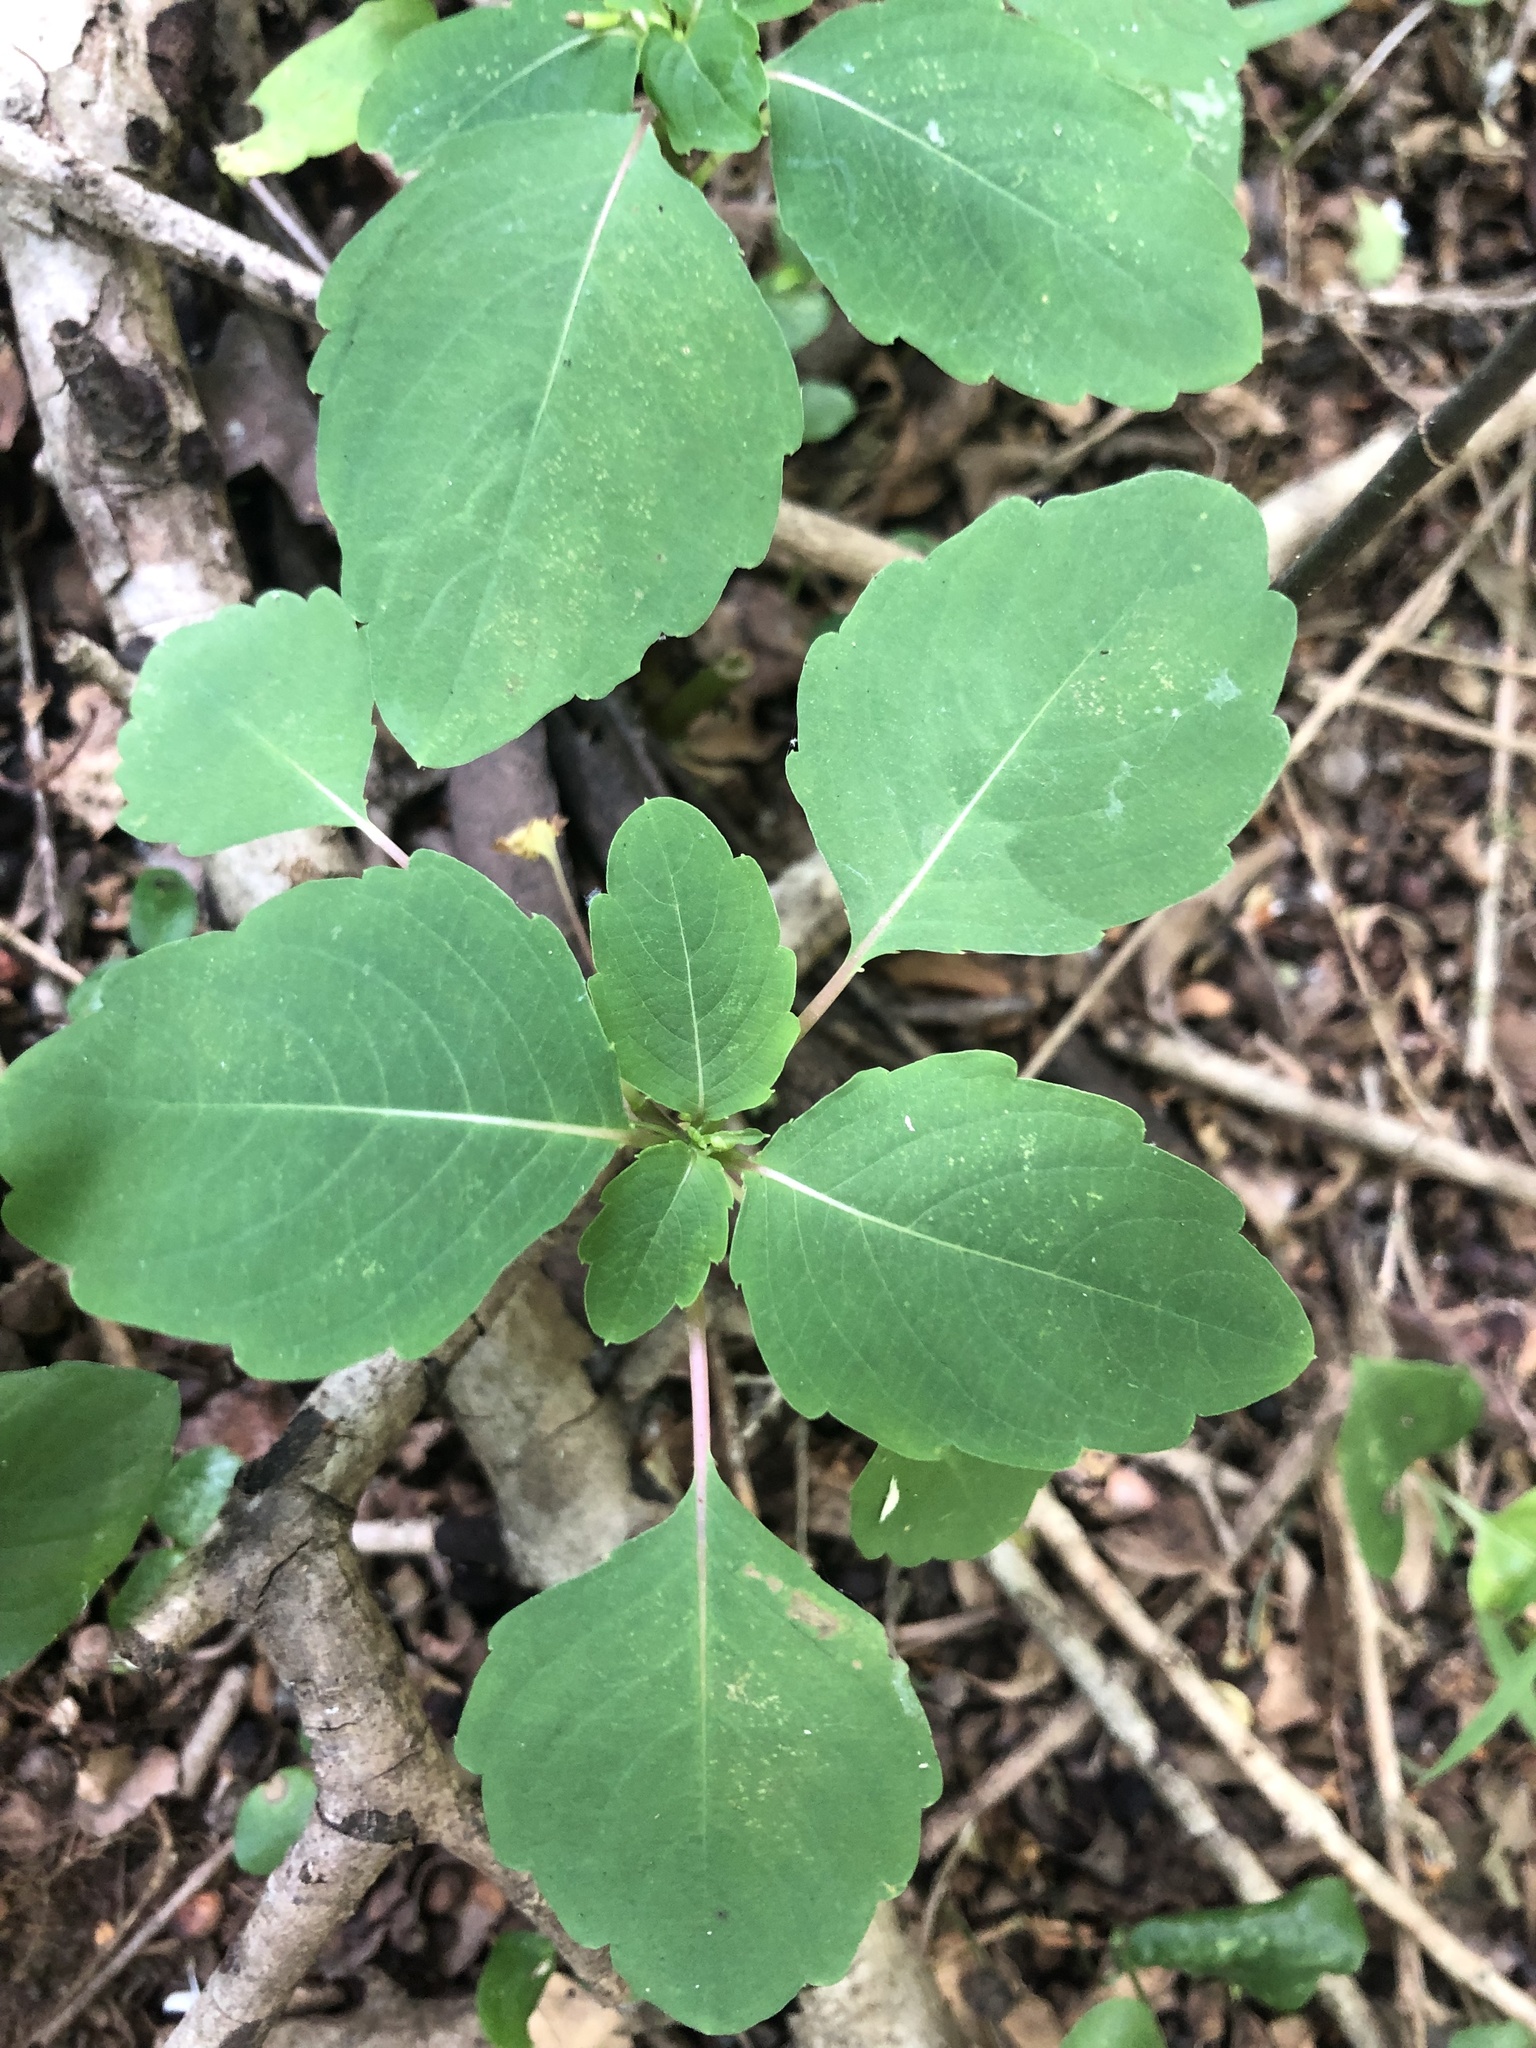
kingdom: Plantae
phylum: Tracheophyta
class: Magnoliopsida
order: Ericales
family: Balsaminaceae
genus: Impatiens
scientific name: Impatiens capensis
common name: Orange balsam
